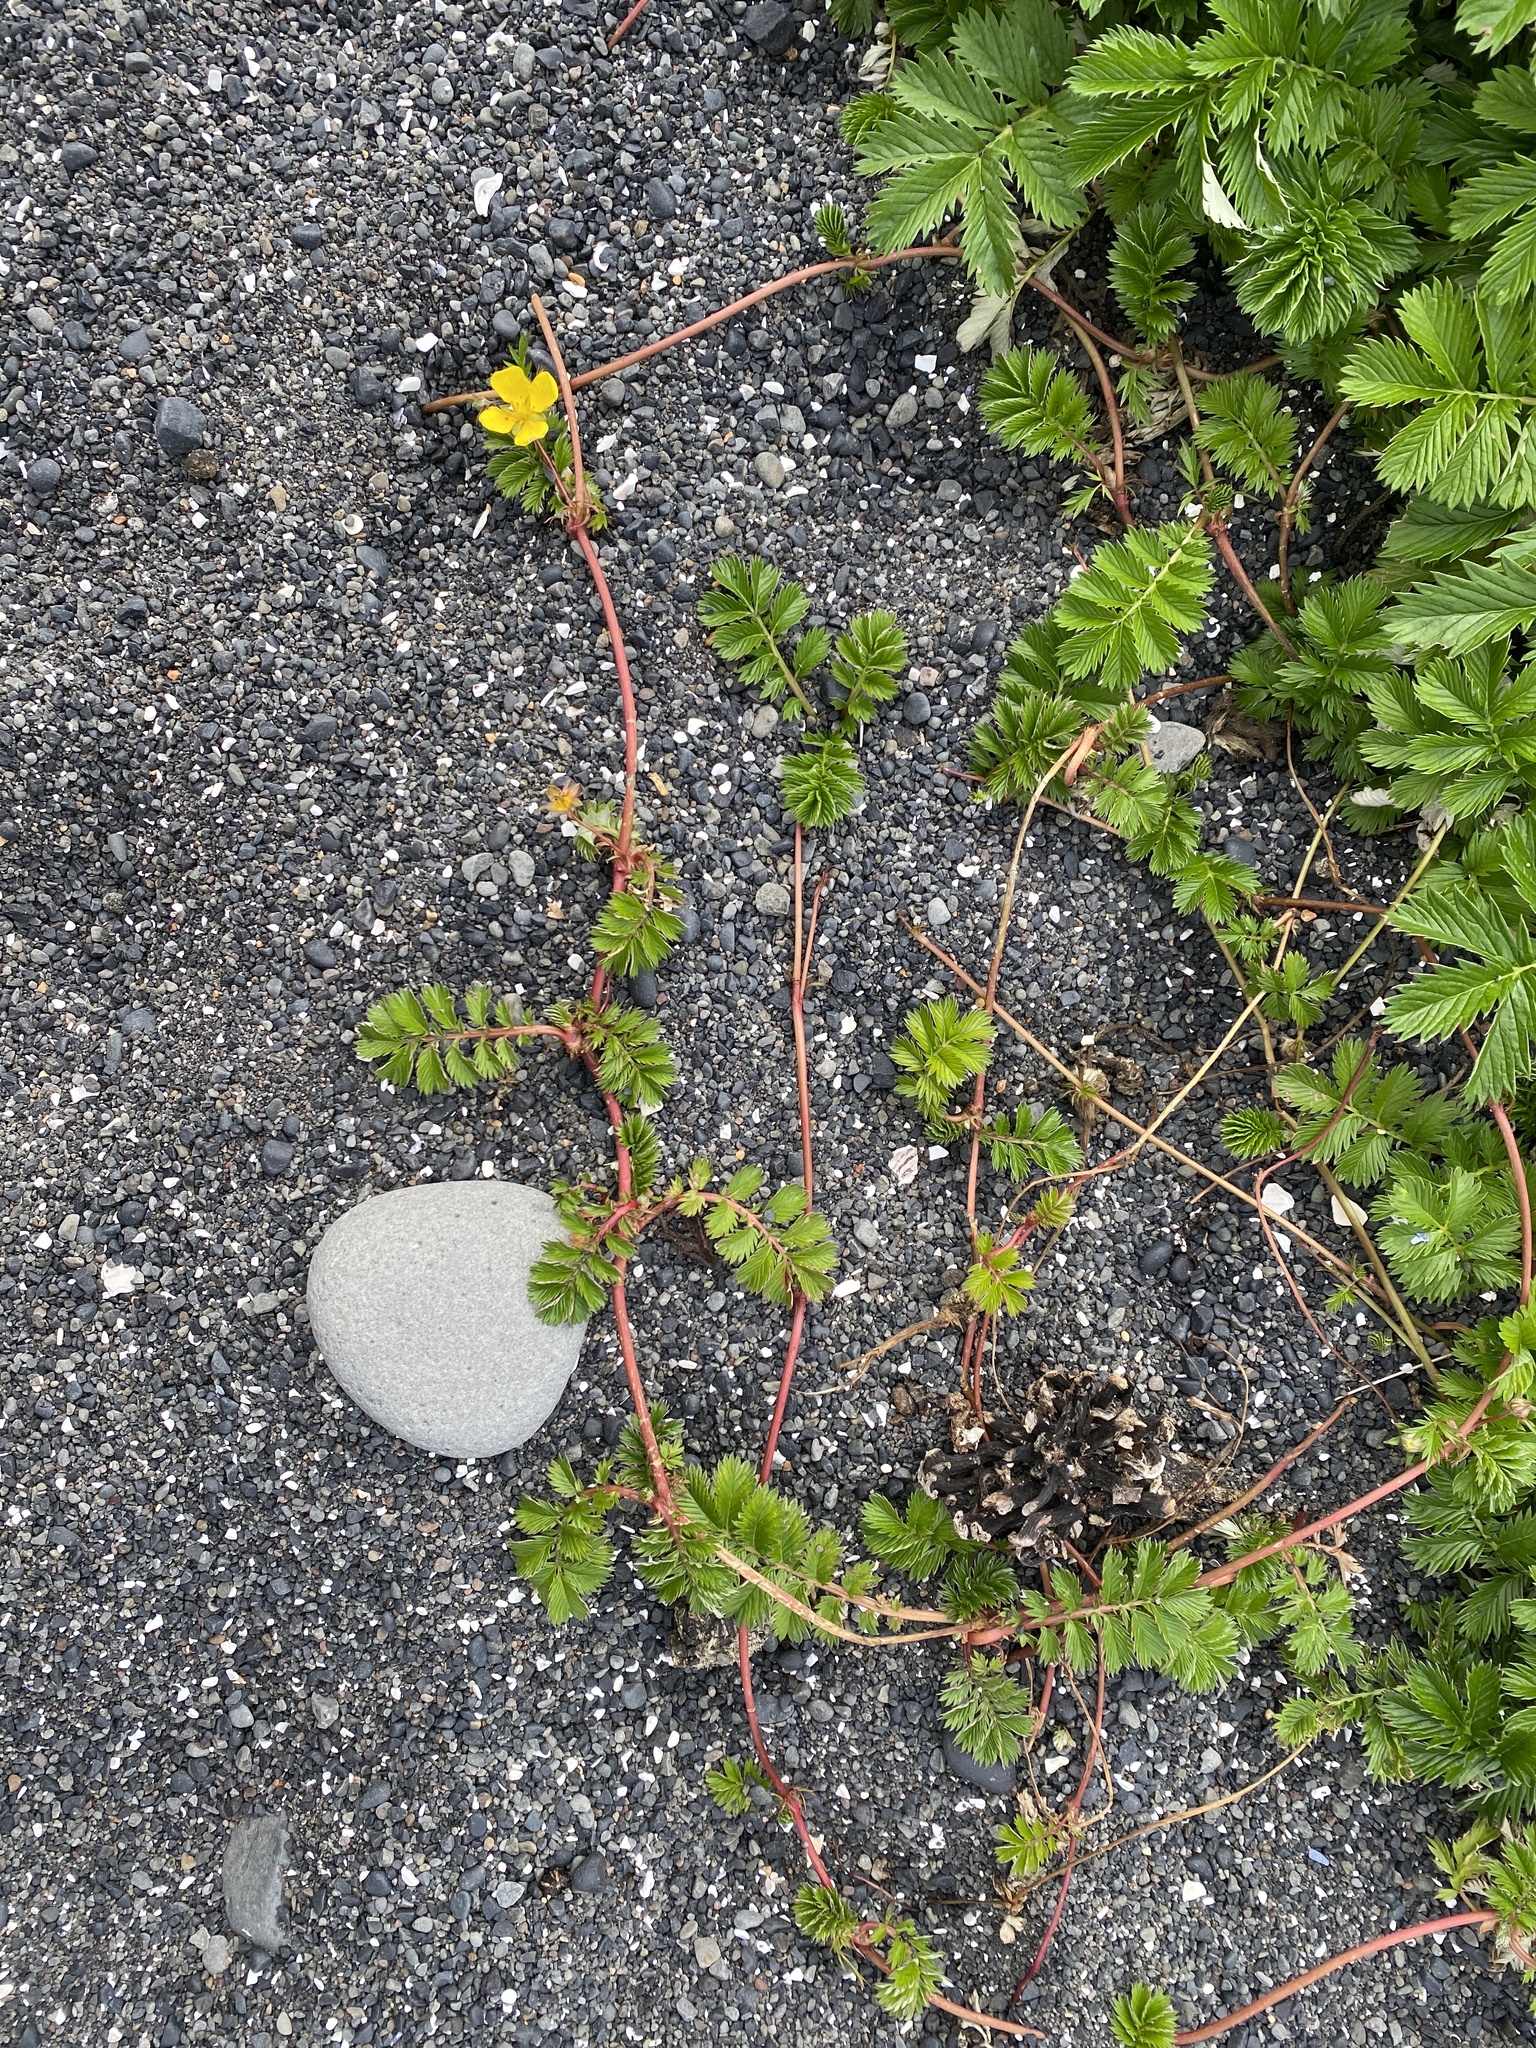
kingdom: Plantae
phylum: Tracheophyta
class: Magnoliopsida
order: Rosales
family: Rosaceae
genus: Argentina
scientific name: Argentina anserina
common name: Common silverweed
